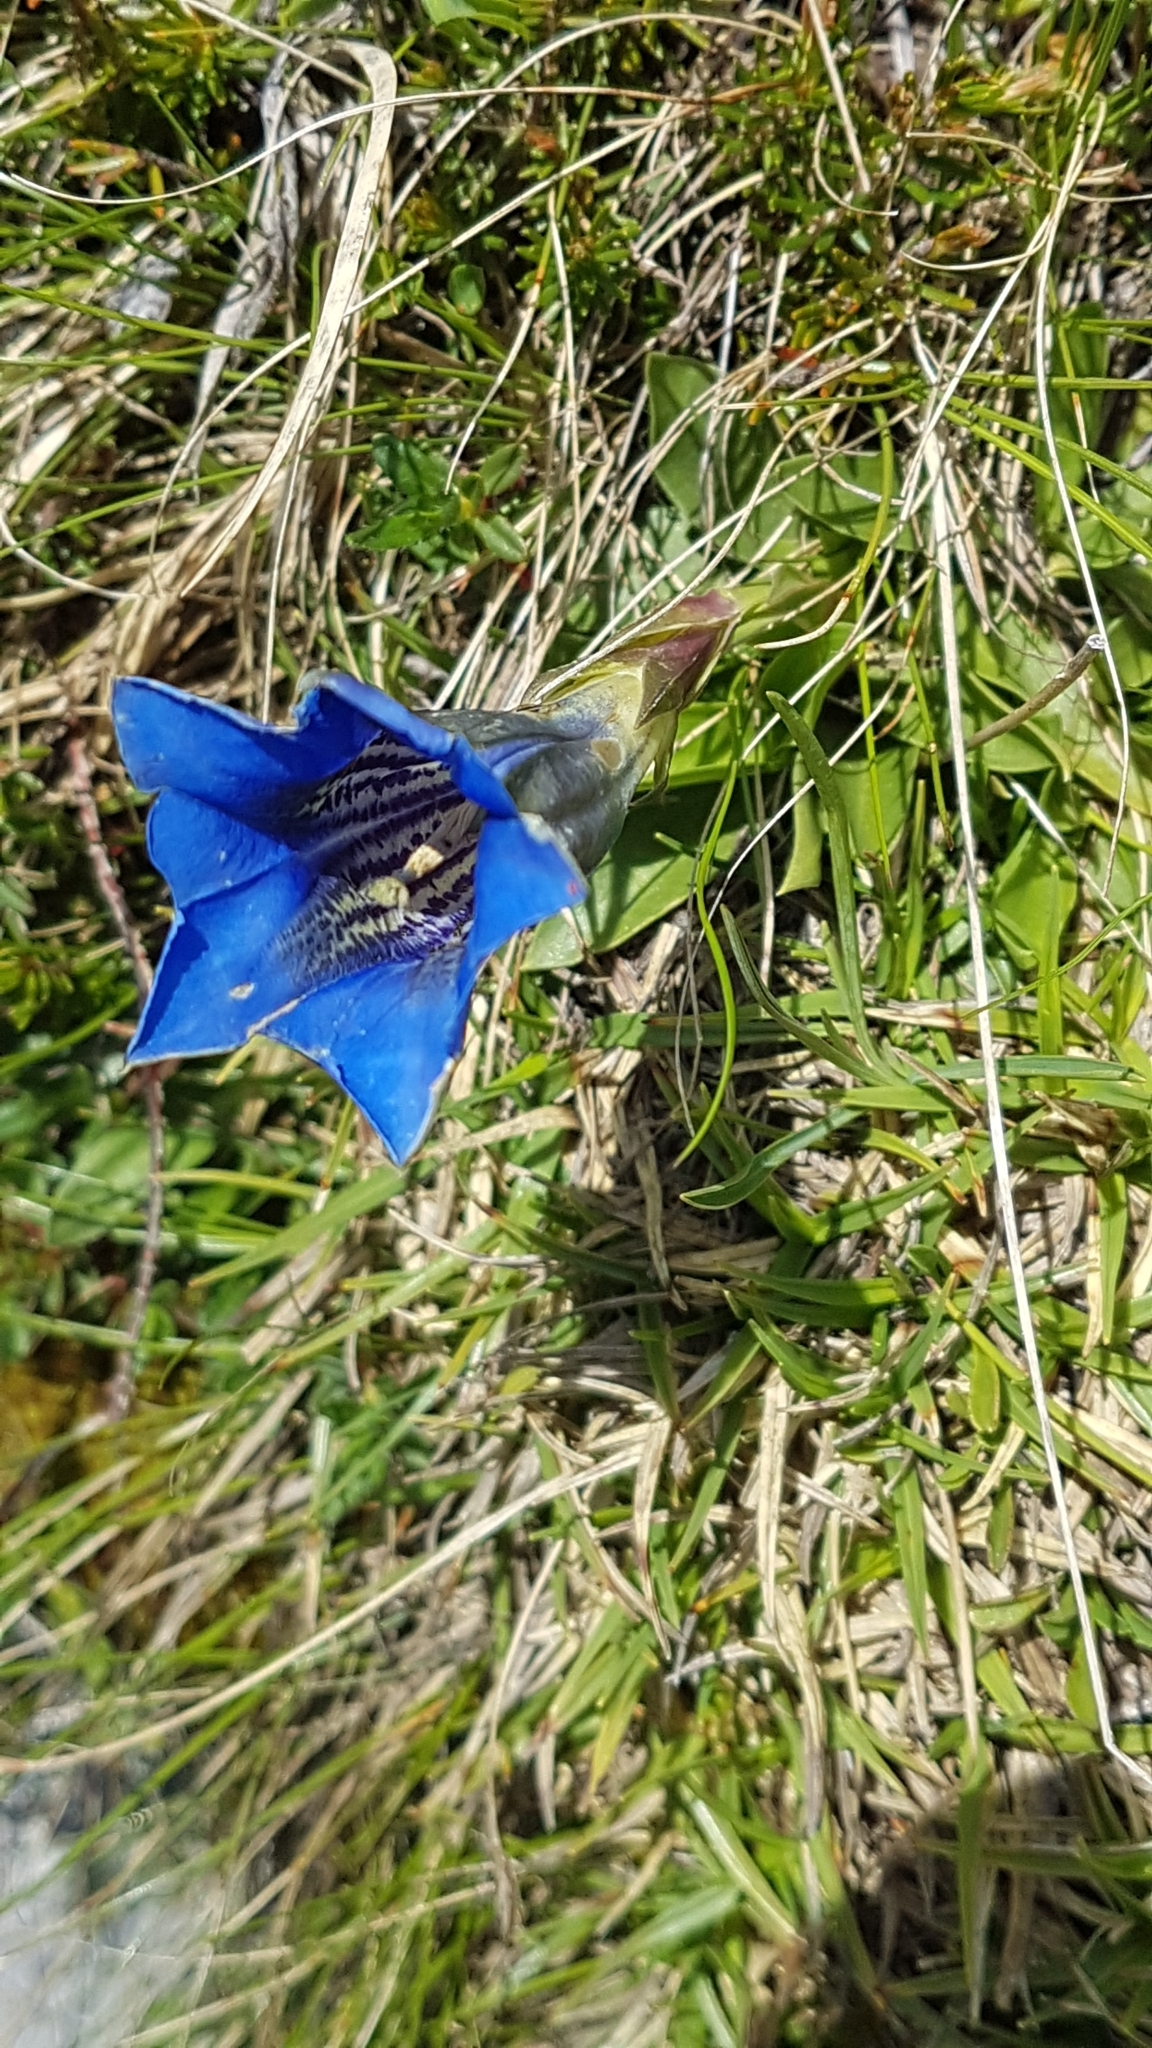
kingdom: Plantae
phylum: Tracheophyta
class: Magnoliopsida
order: Gentianales
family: Gentianaceae
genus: Gentiana
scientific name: Gentiana clusii
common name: Trumpet gentian
